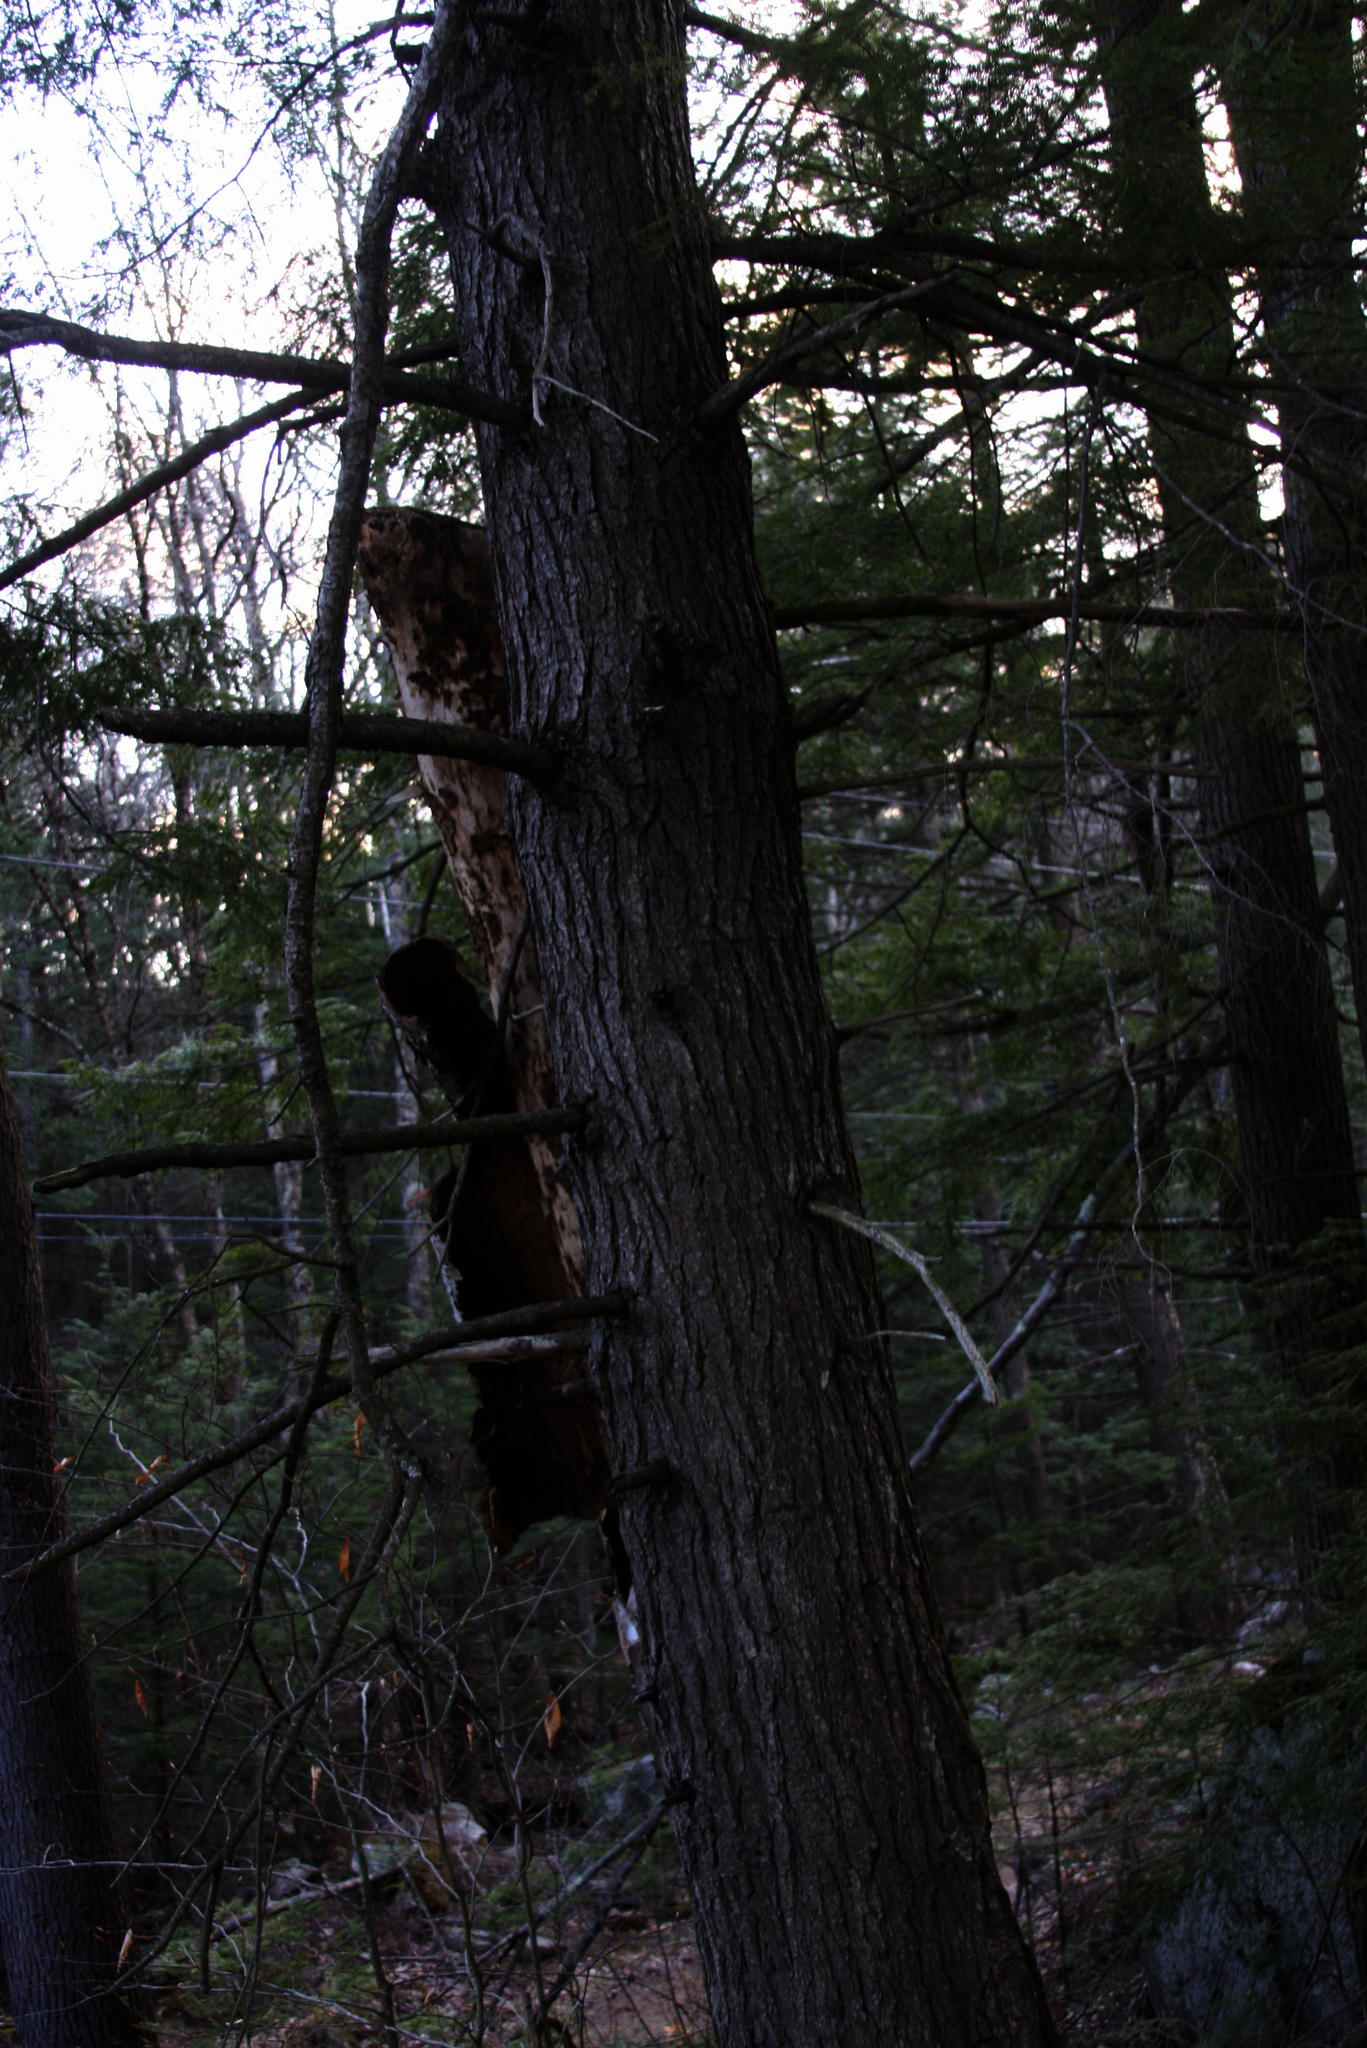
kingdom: Plantae
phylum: Tracheophyta
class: Pinopsida
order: Pinales
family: Pinaceae
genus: Tsuga
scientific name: Tsuga canadensis
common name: Eastern hemlock
